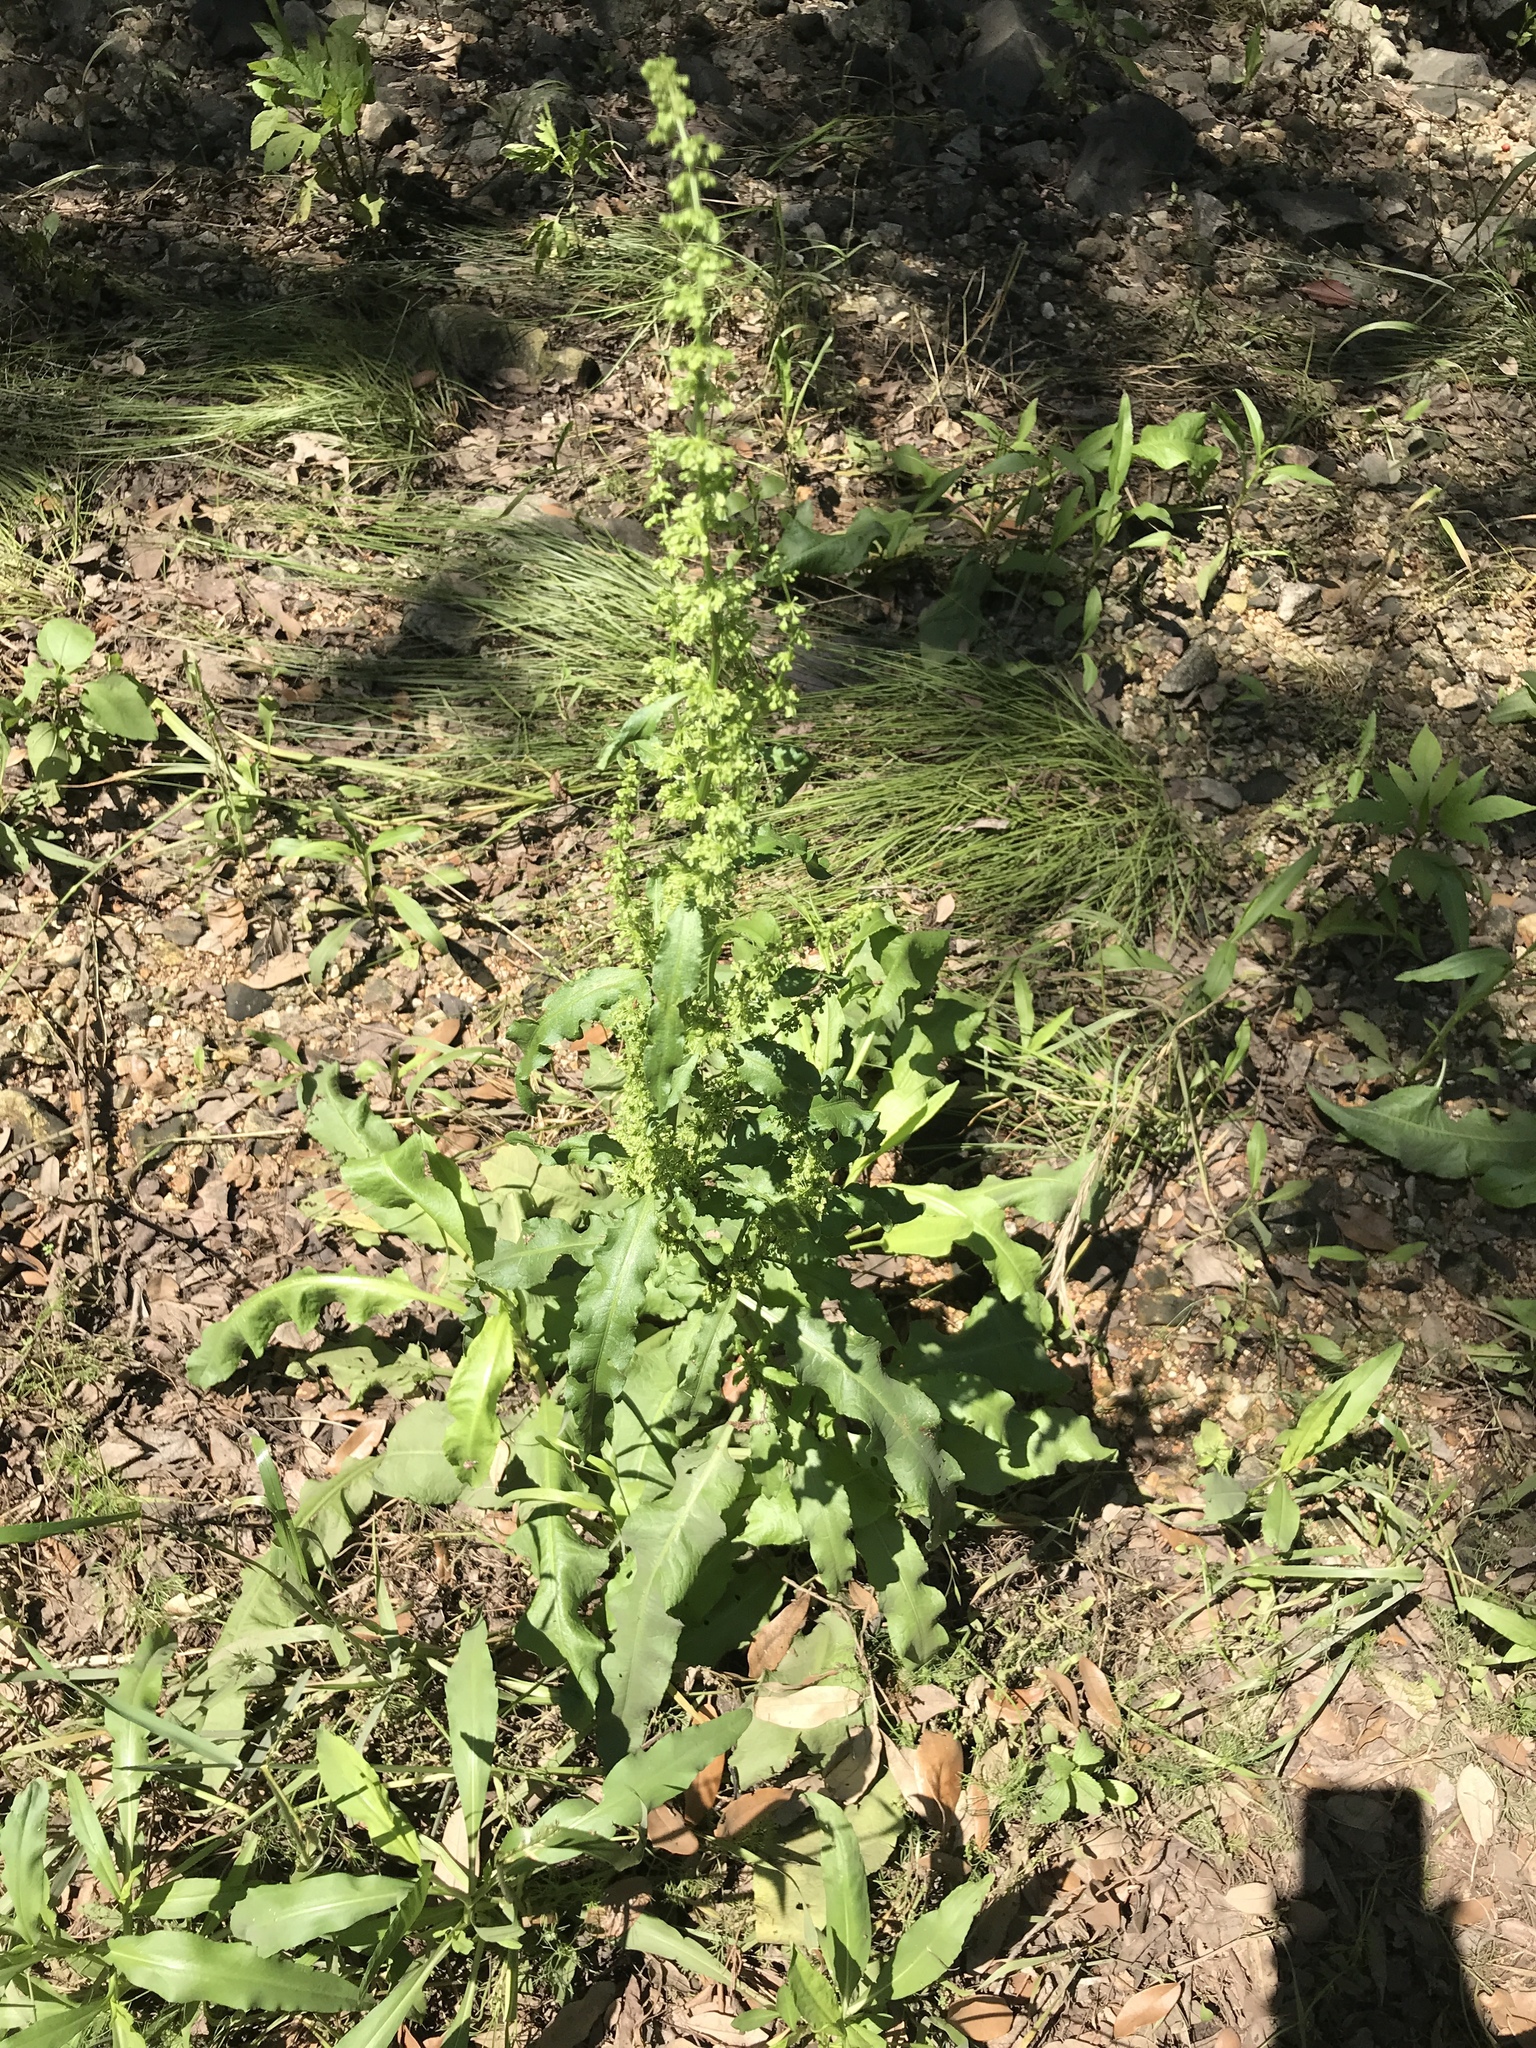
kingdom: Plantae
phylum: Tracheophyta
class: Magnoliopsida
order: Caryophyllales
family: Polygonaceae
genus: Rumex
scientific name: Rumex crispus
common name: Curled dock
